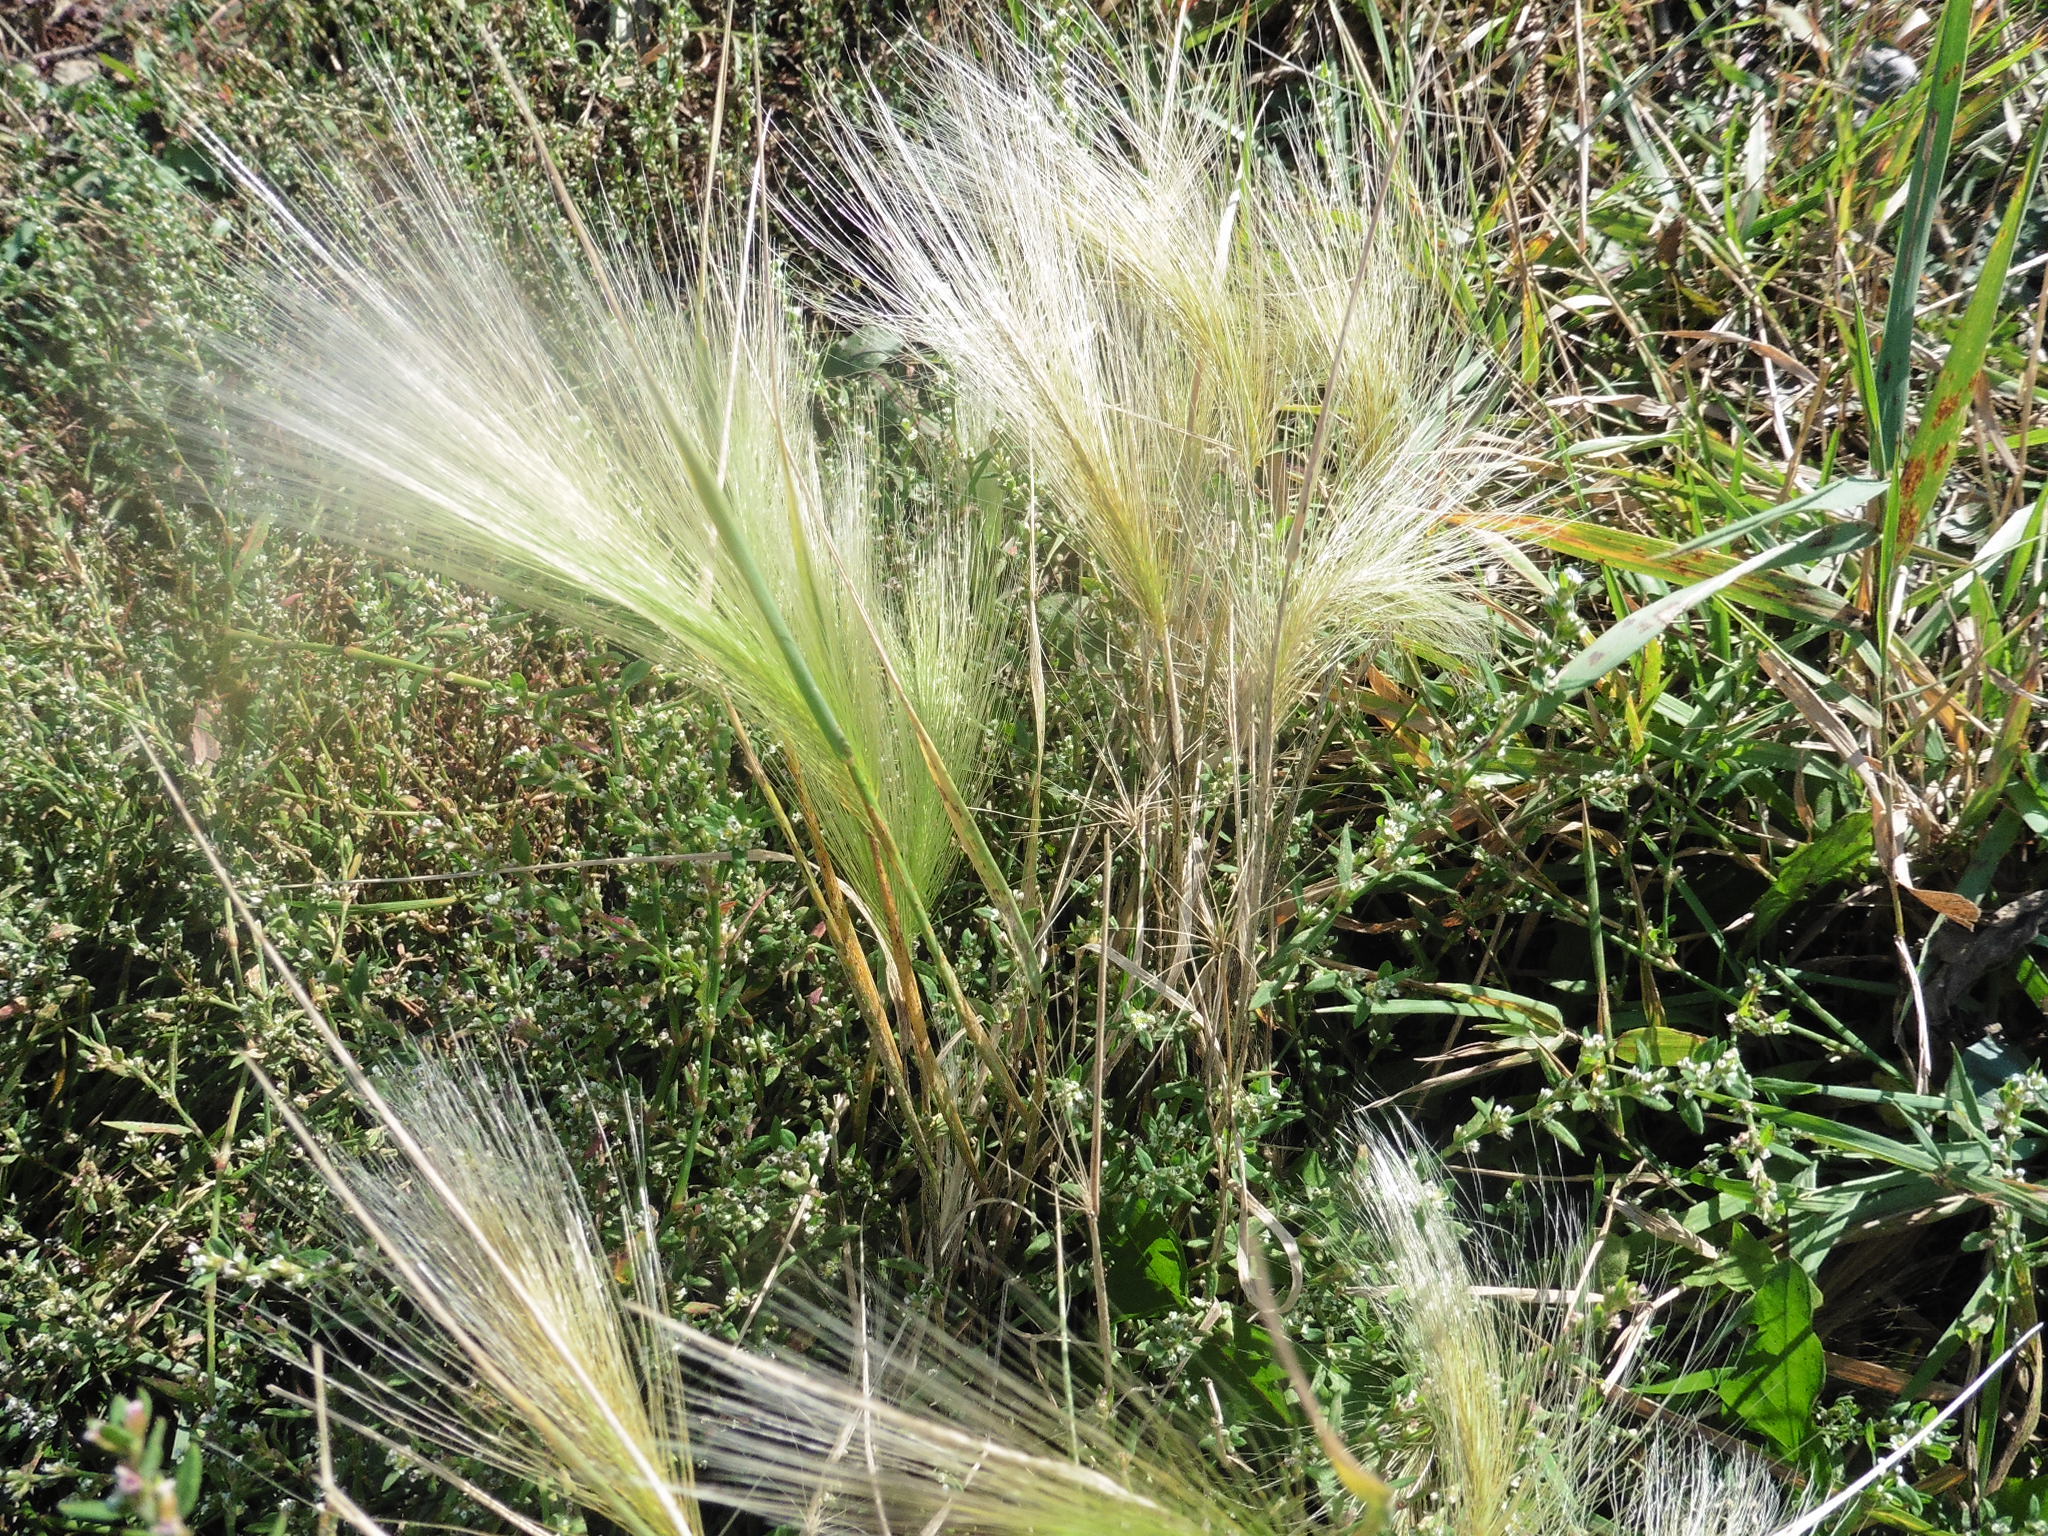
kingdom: Plantae
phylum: Tracheophyta
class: Liliopsida
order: Poales
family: Poaceae
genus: Hordeum
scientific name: Hordeum jubatum
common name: Foxtail barley
